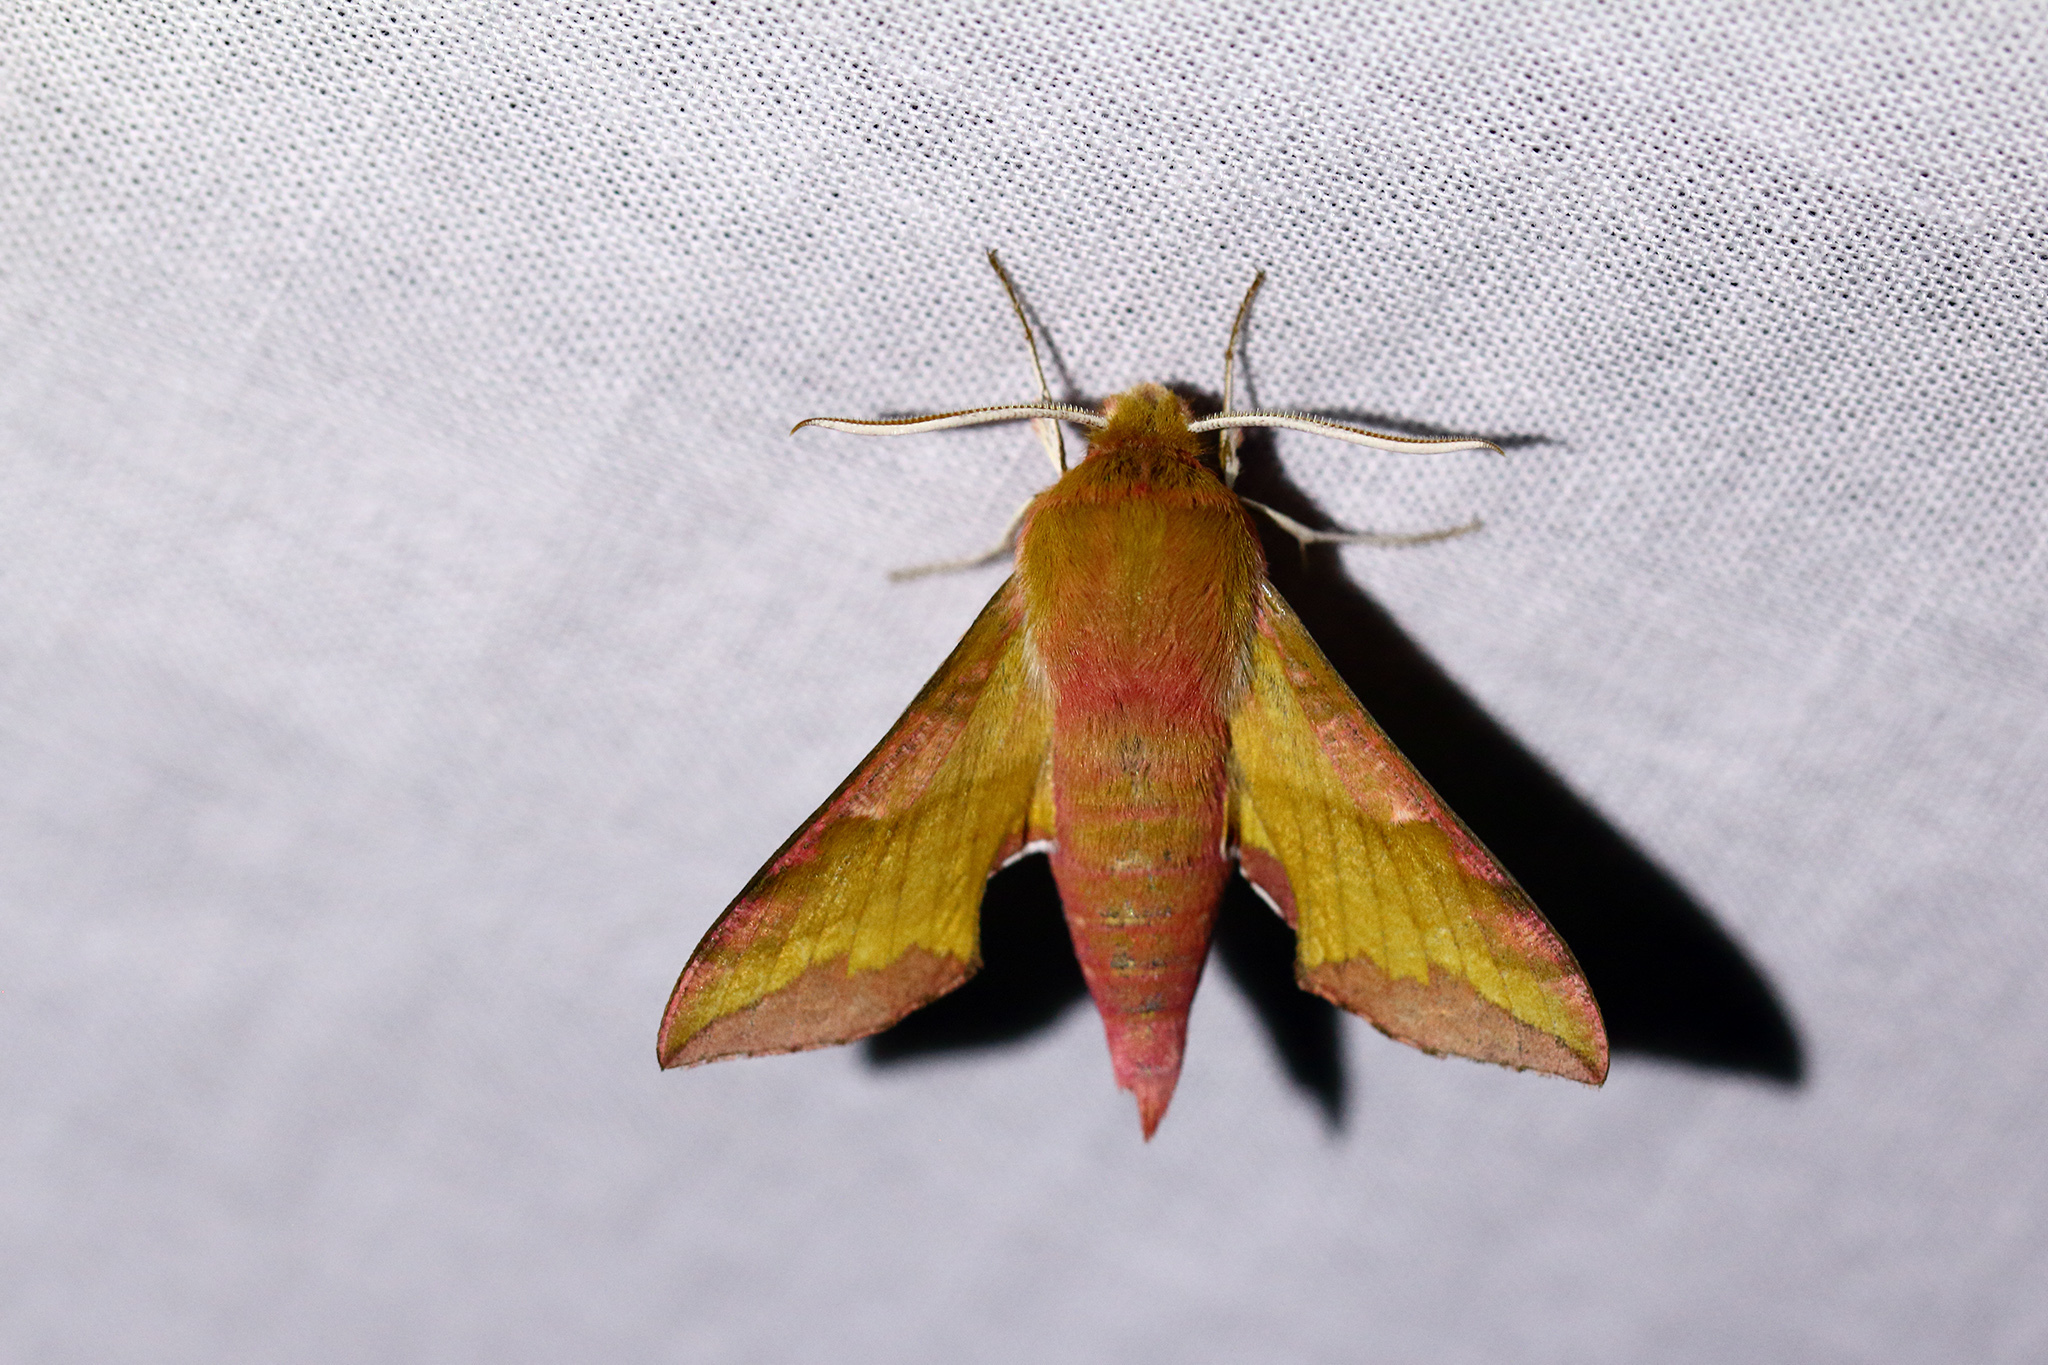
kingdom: Animalia
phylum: Arthropoda
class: Insecta
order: Lepidoptera
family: Sphingidae
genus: Deilephila
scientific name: Deilephila porcellus
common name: Small elephant hawk-moth
